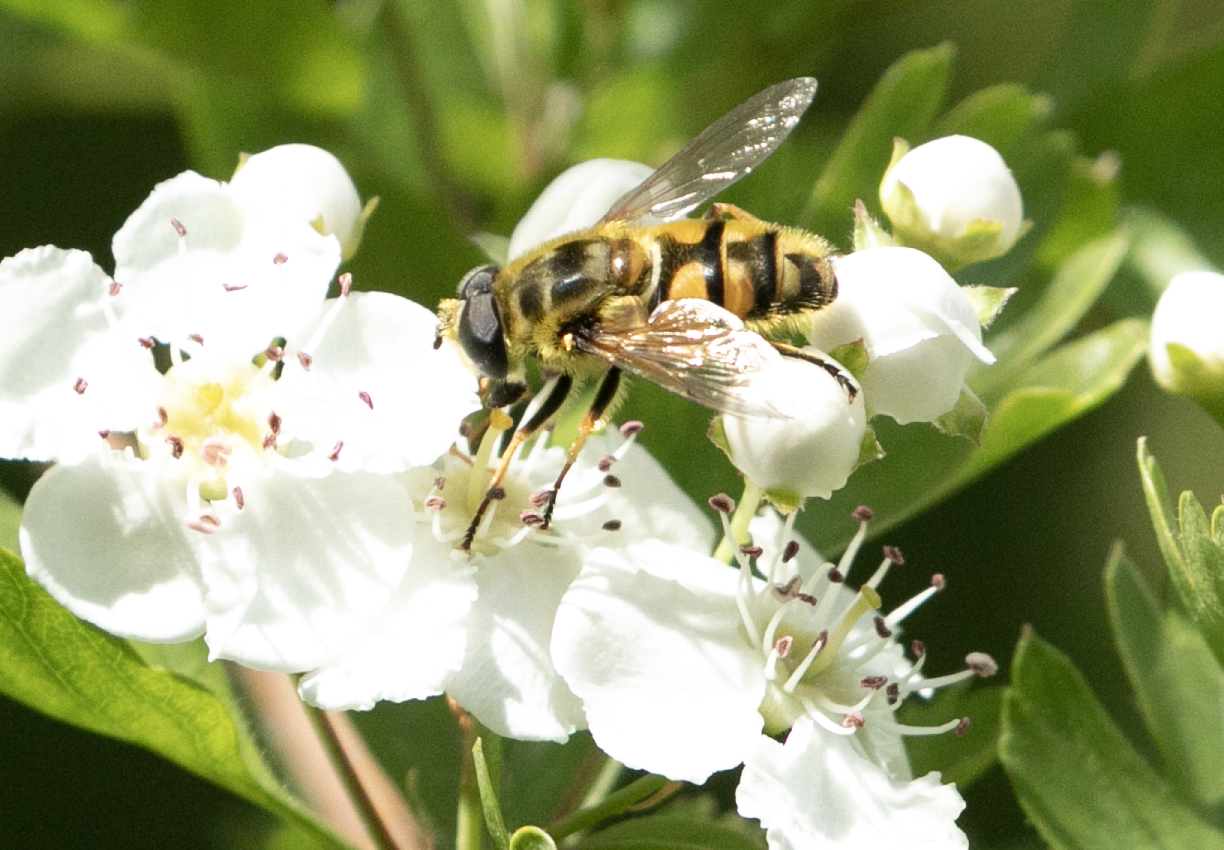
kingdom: Animalia
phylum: Arthropoda
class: Insecta
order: Diptera
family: Syrphidae
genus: Myathropa
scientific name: Myathropa florea
